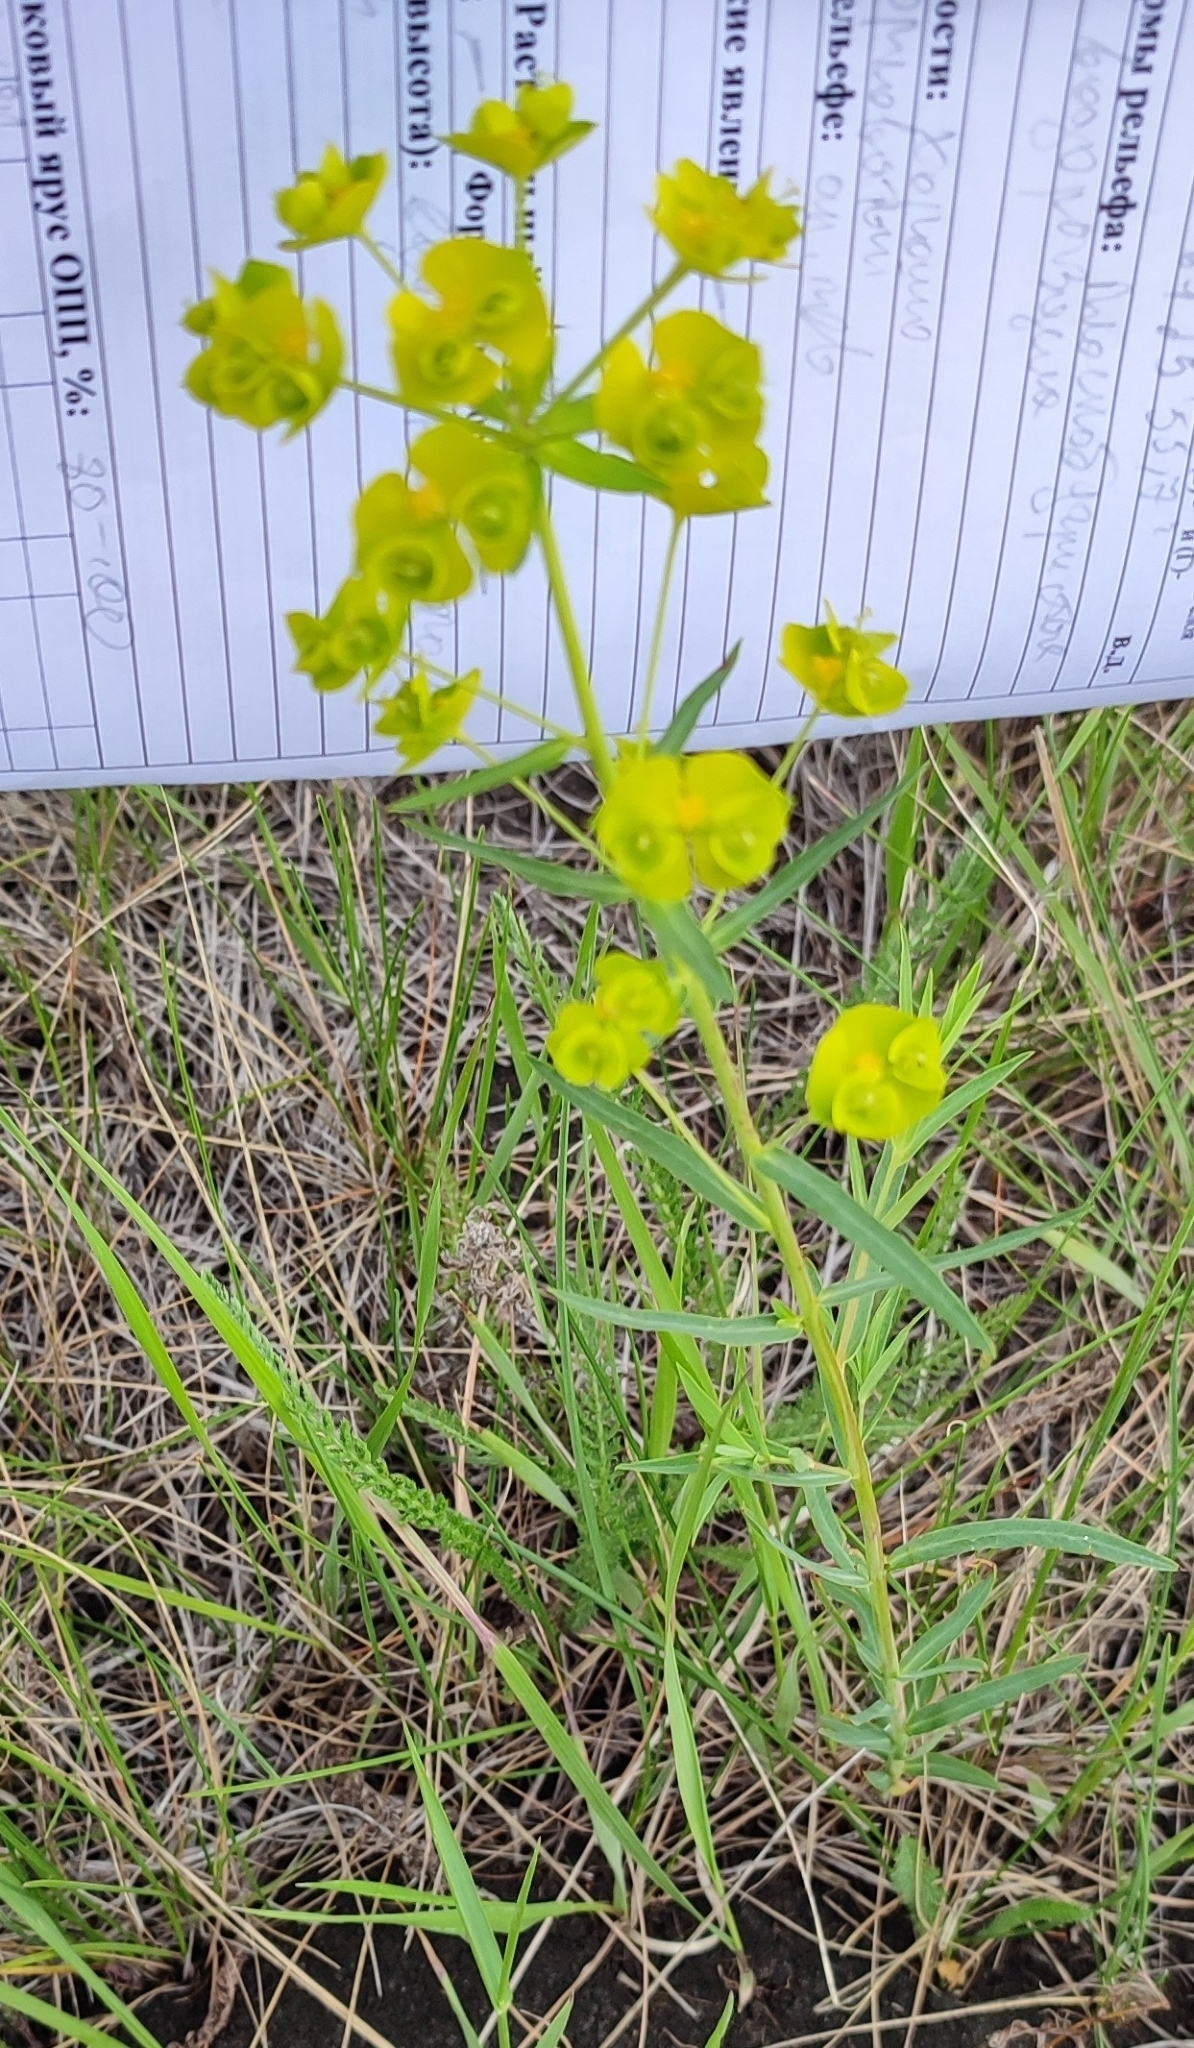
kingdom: Plantae
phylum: Tracheophyta
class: Magnoliopsida
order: Malpighiales
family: Euphorbiaceae
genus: Euphorbia
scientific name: Euphorbia virgata
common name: Leafy spurge
